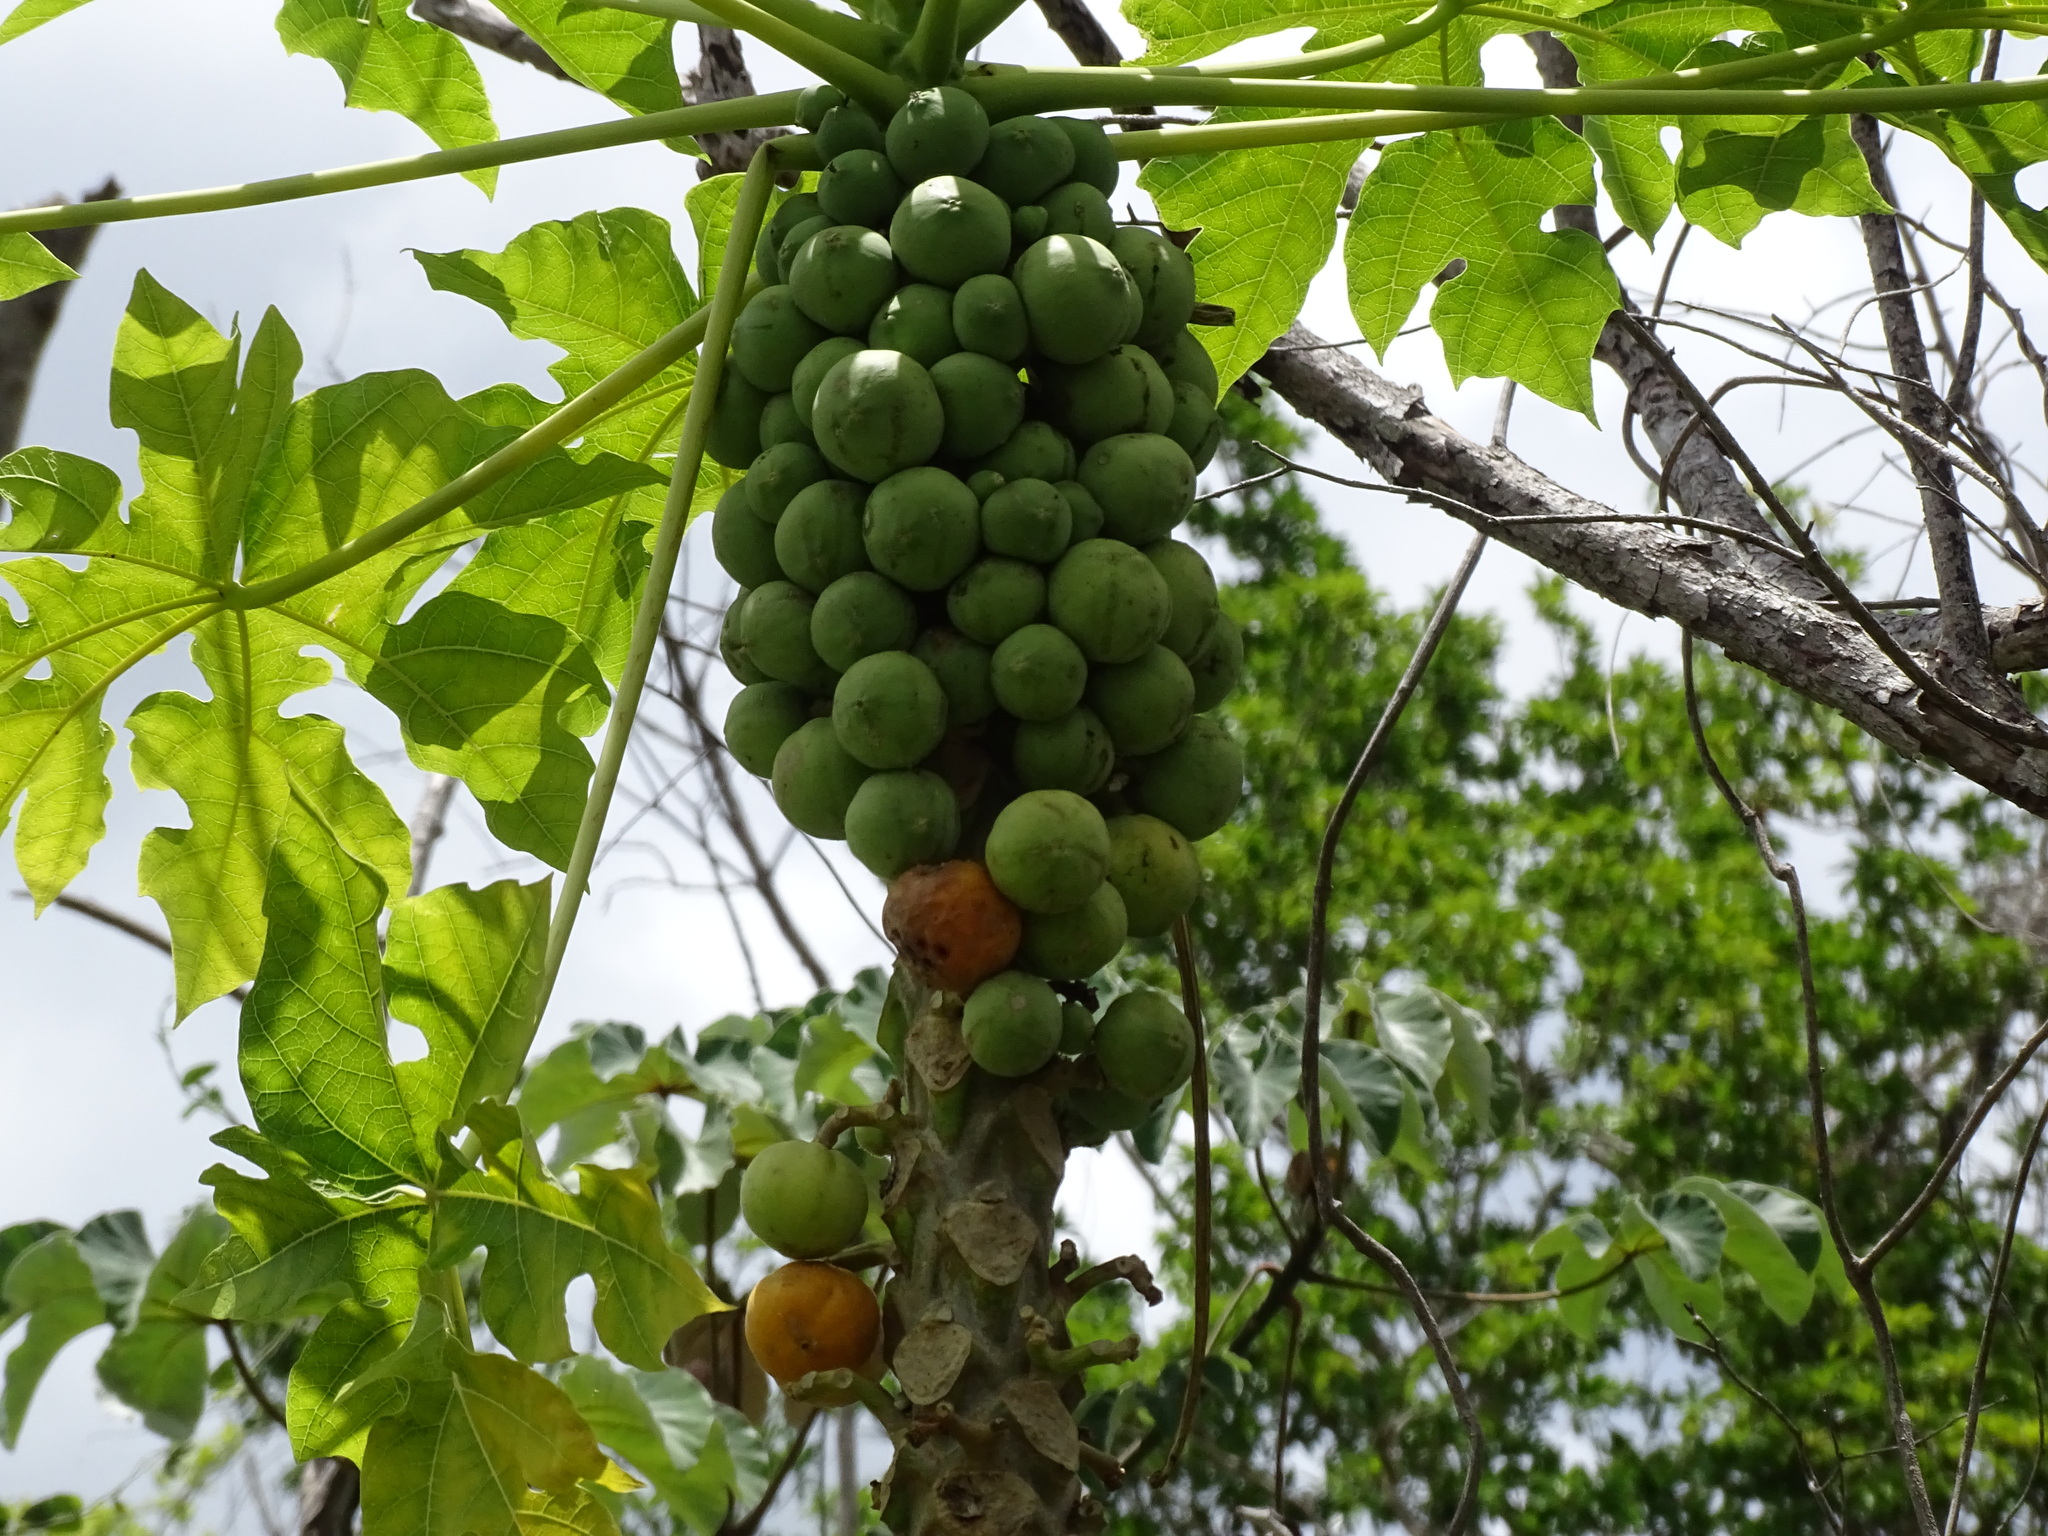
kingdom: Plantae
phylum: Tracheophyta
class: Magnoliopsida
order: Brassicales
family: Caricaceae
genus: Carica
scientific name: Carica papaya
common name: Papaya
